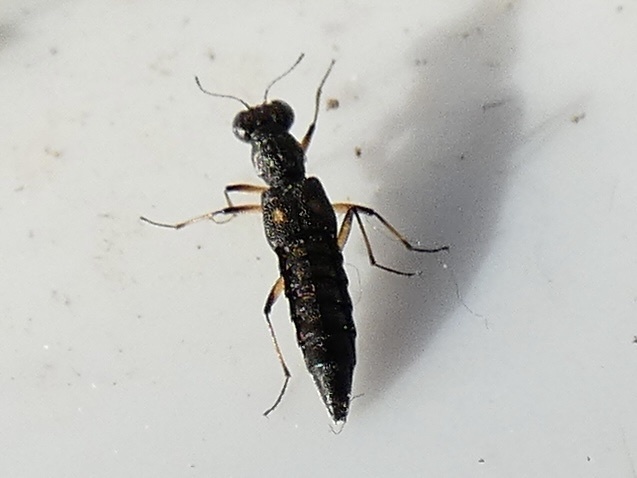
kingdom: Animalia
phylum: Arthropoda
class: Insecta
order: Coleoptera
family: Staphylinidae
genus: Stenus
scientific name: Stenus bimaculatus
